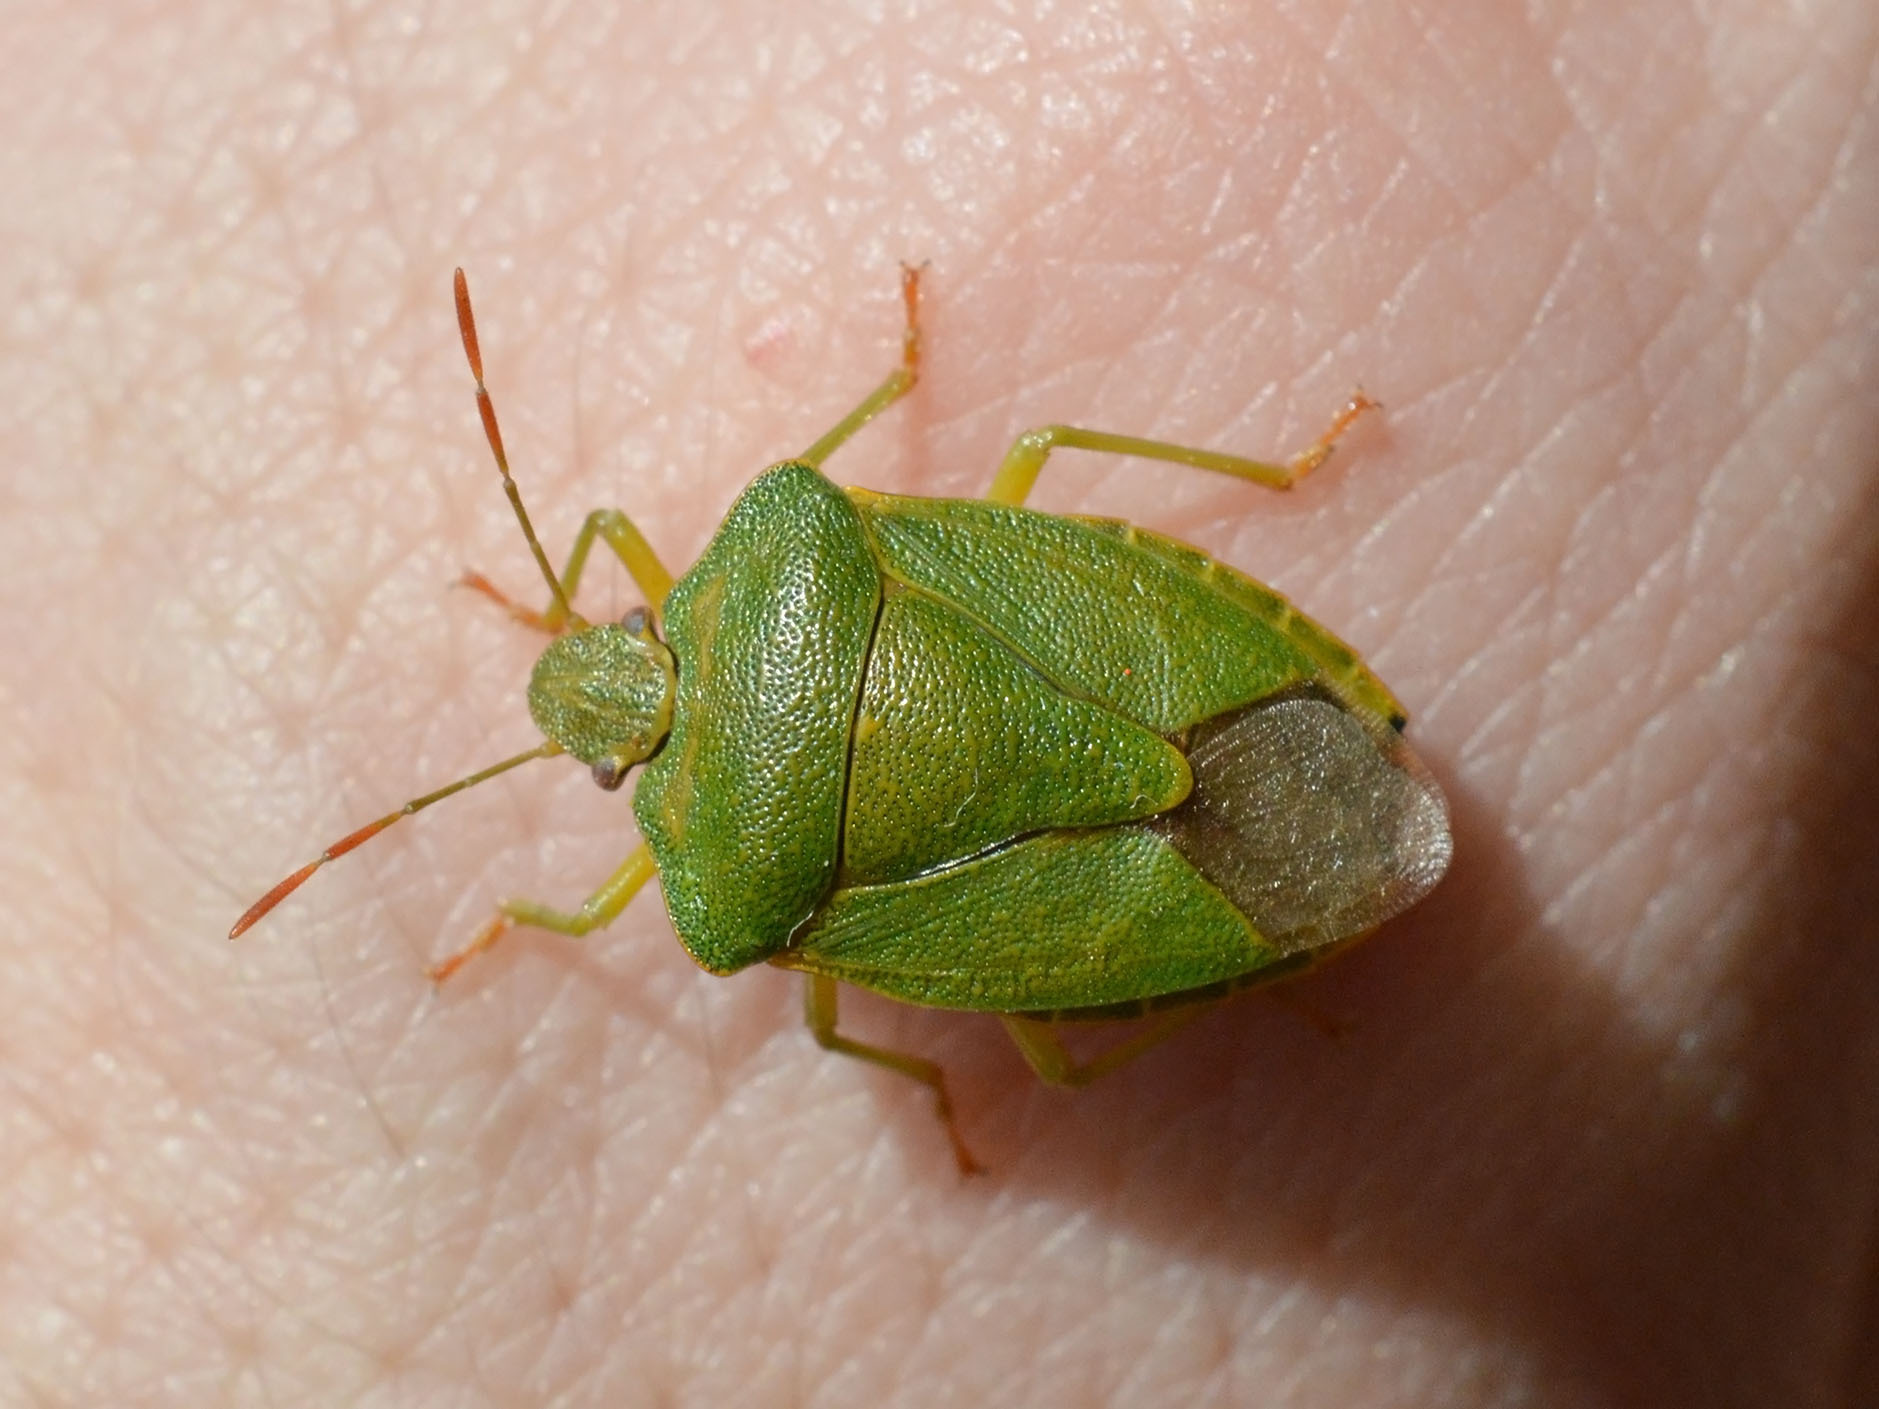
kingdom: Animalia
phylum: Arthropoda
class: Insecta
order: Hemiptera
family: Pentatomidae
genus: Palomena
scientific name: Palomena prasina
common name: Green shieldbug
